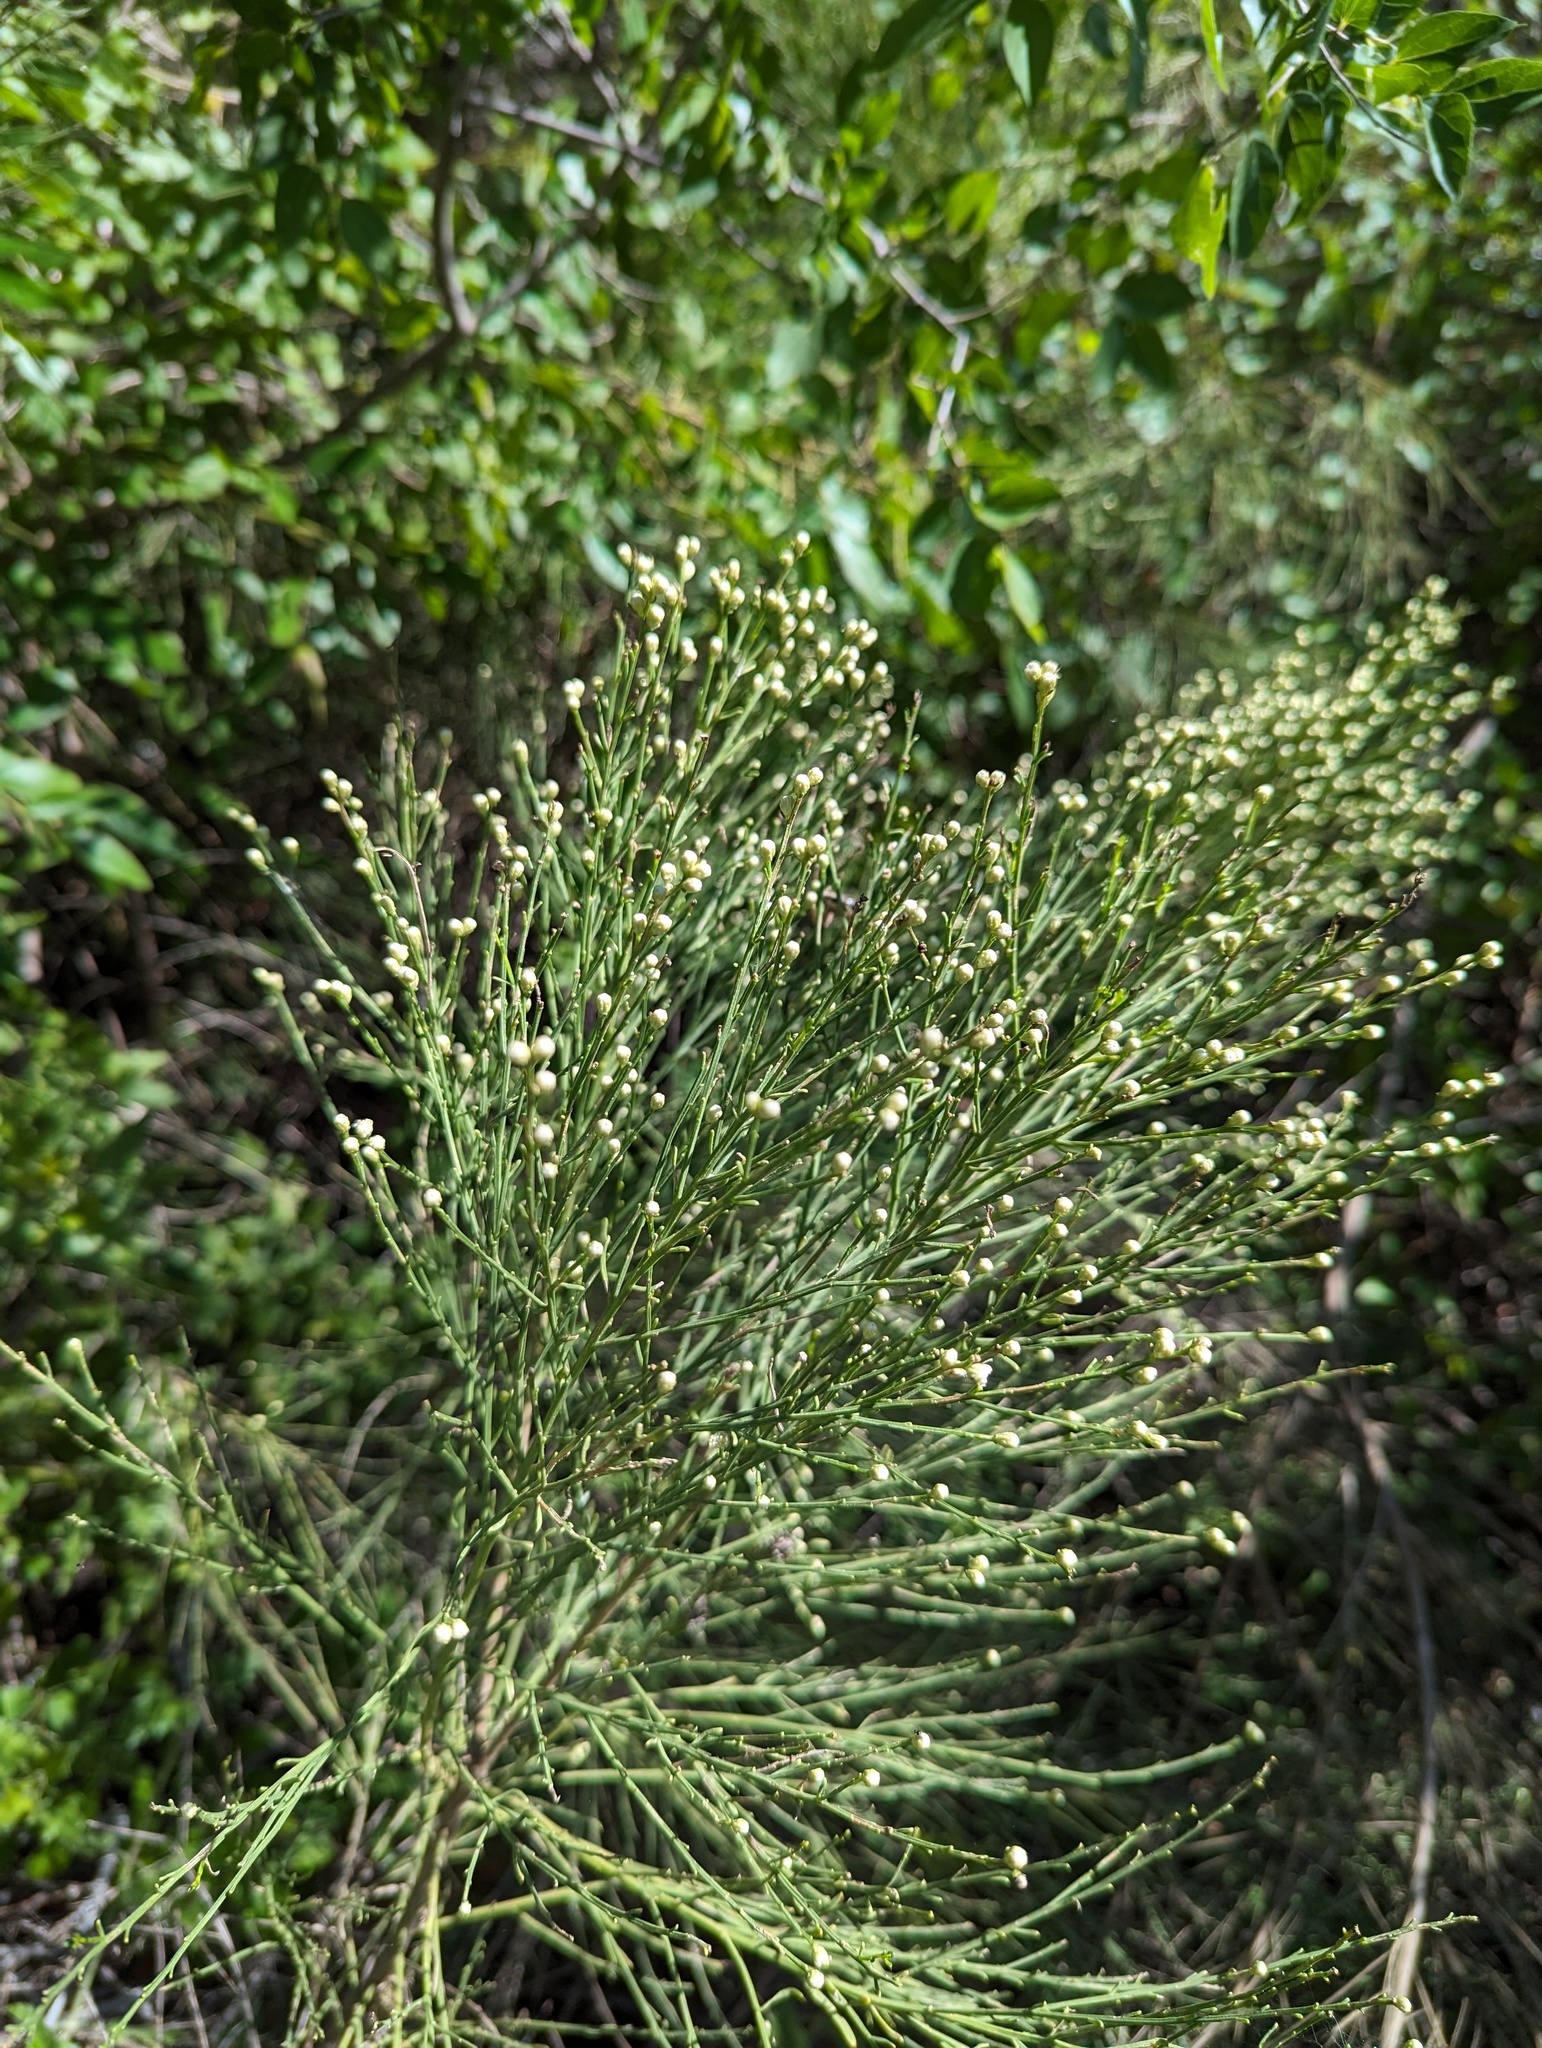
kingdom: Plantae
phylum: Tracheophyta
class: Magnoliopsida
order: Asterales
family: Asteraceae
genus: Baccharis
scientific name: Baccharis sarothroides
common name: Desert-broom
